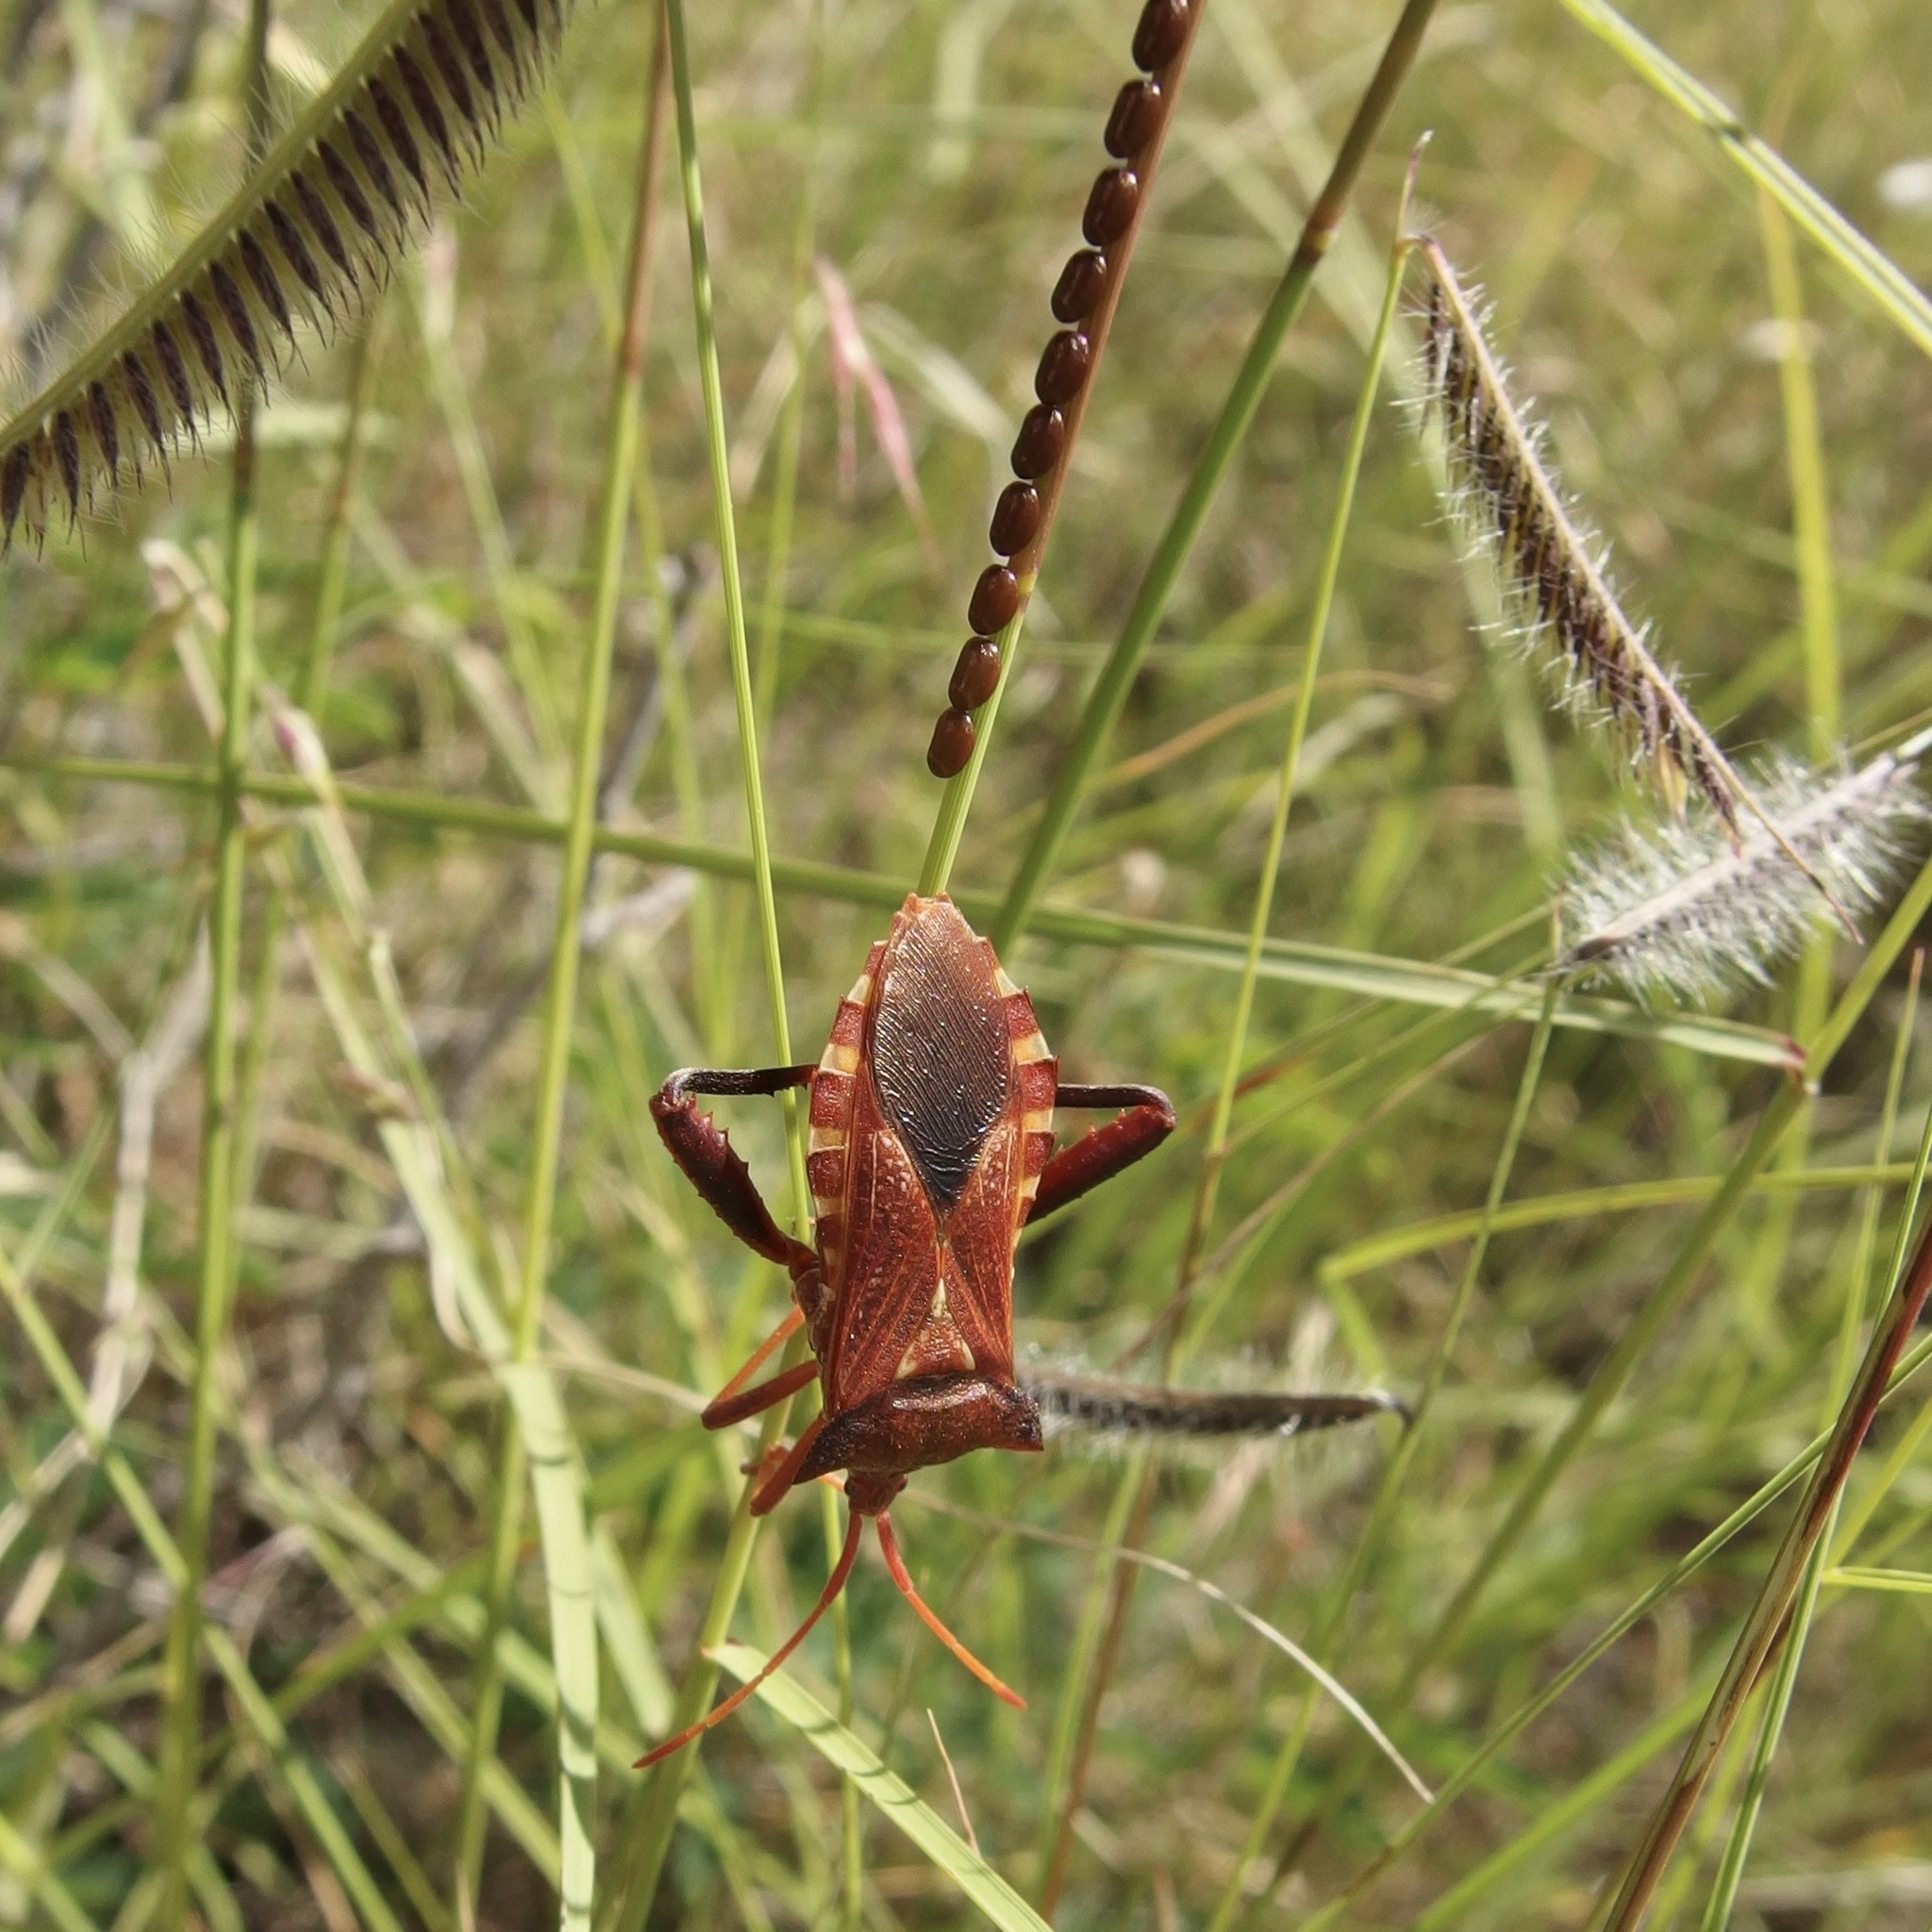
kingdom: Animalia
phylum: Arthropoda
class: Insecta
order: Hemiptera
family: Coreidae
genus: Mozena
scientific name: Mozena buenoi
